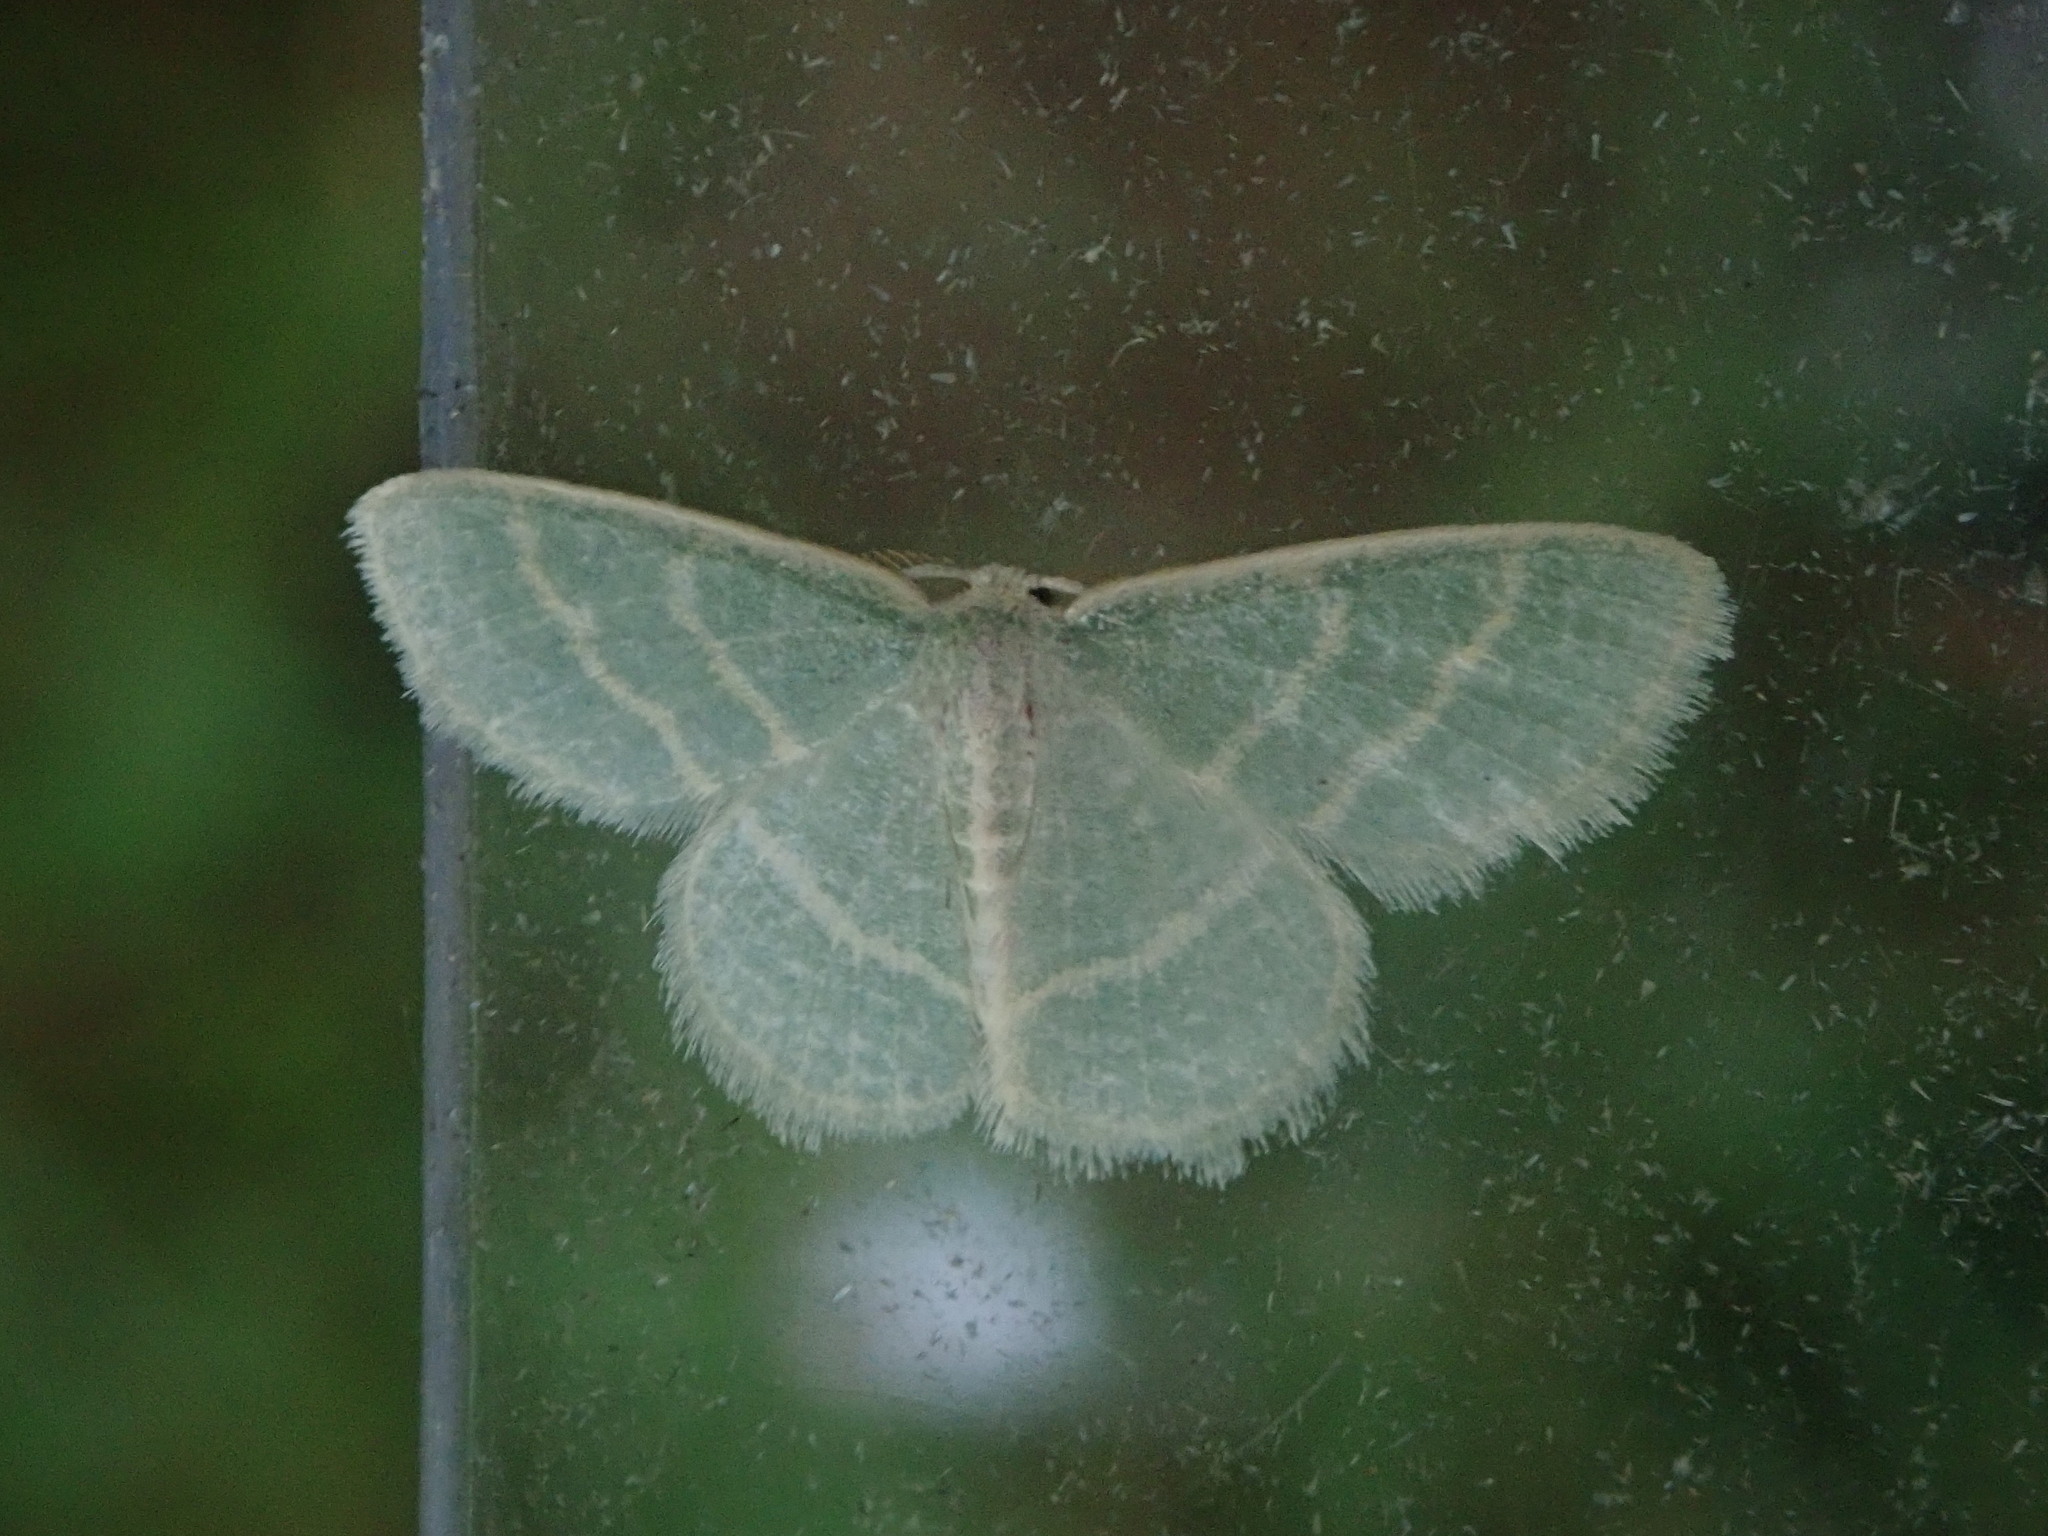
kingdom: Animalia
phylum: Arthropoda
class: Insecta
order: Lepidoptera
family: Geometridae
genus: Chlorochlamys
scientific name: Chlorochlamys chloroleucaria
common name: Blackberry looper
